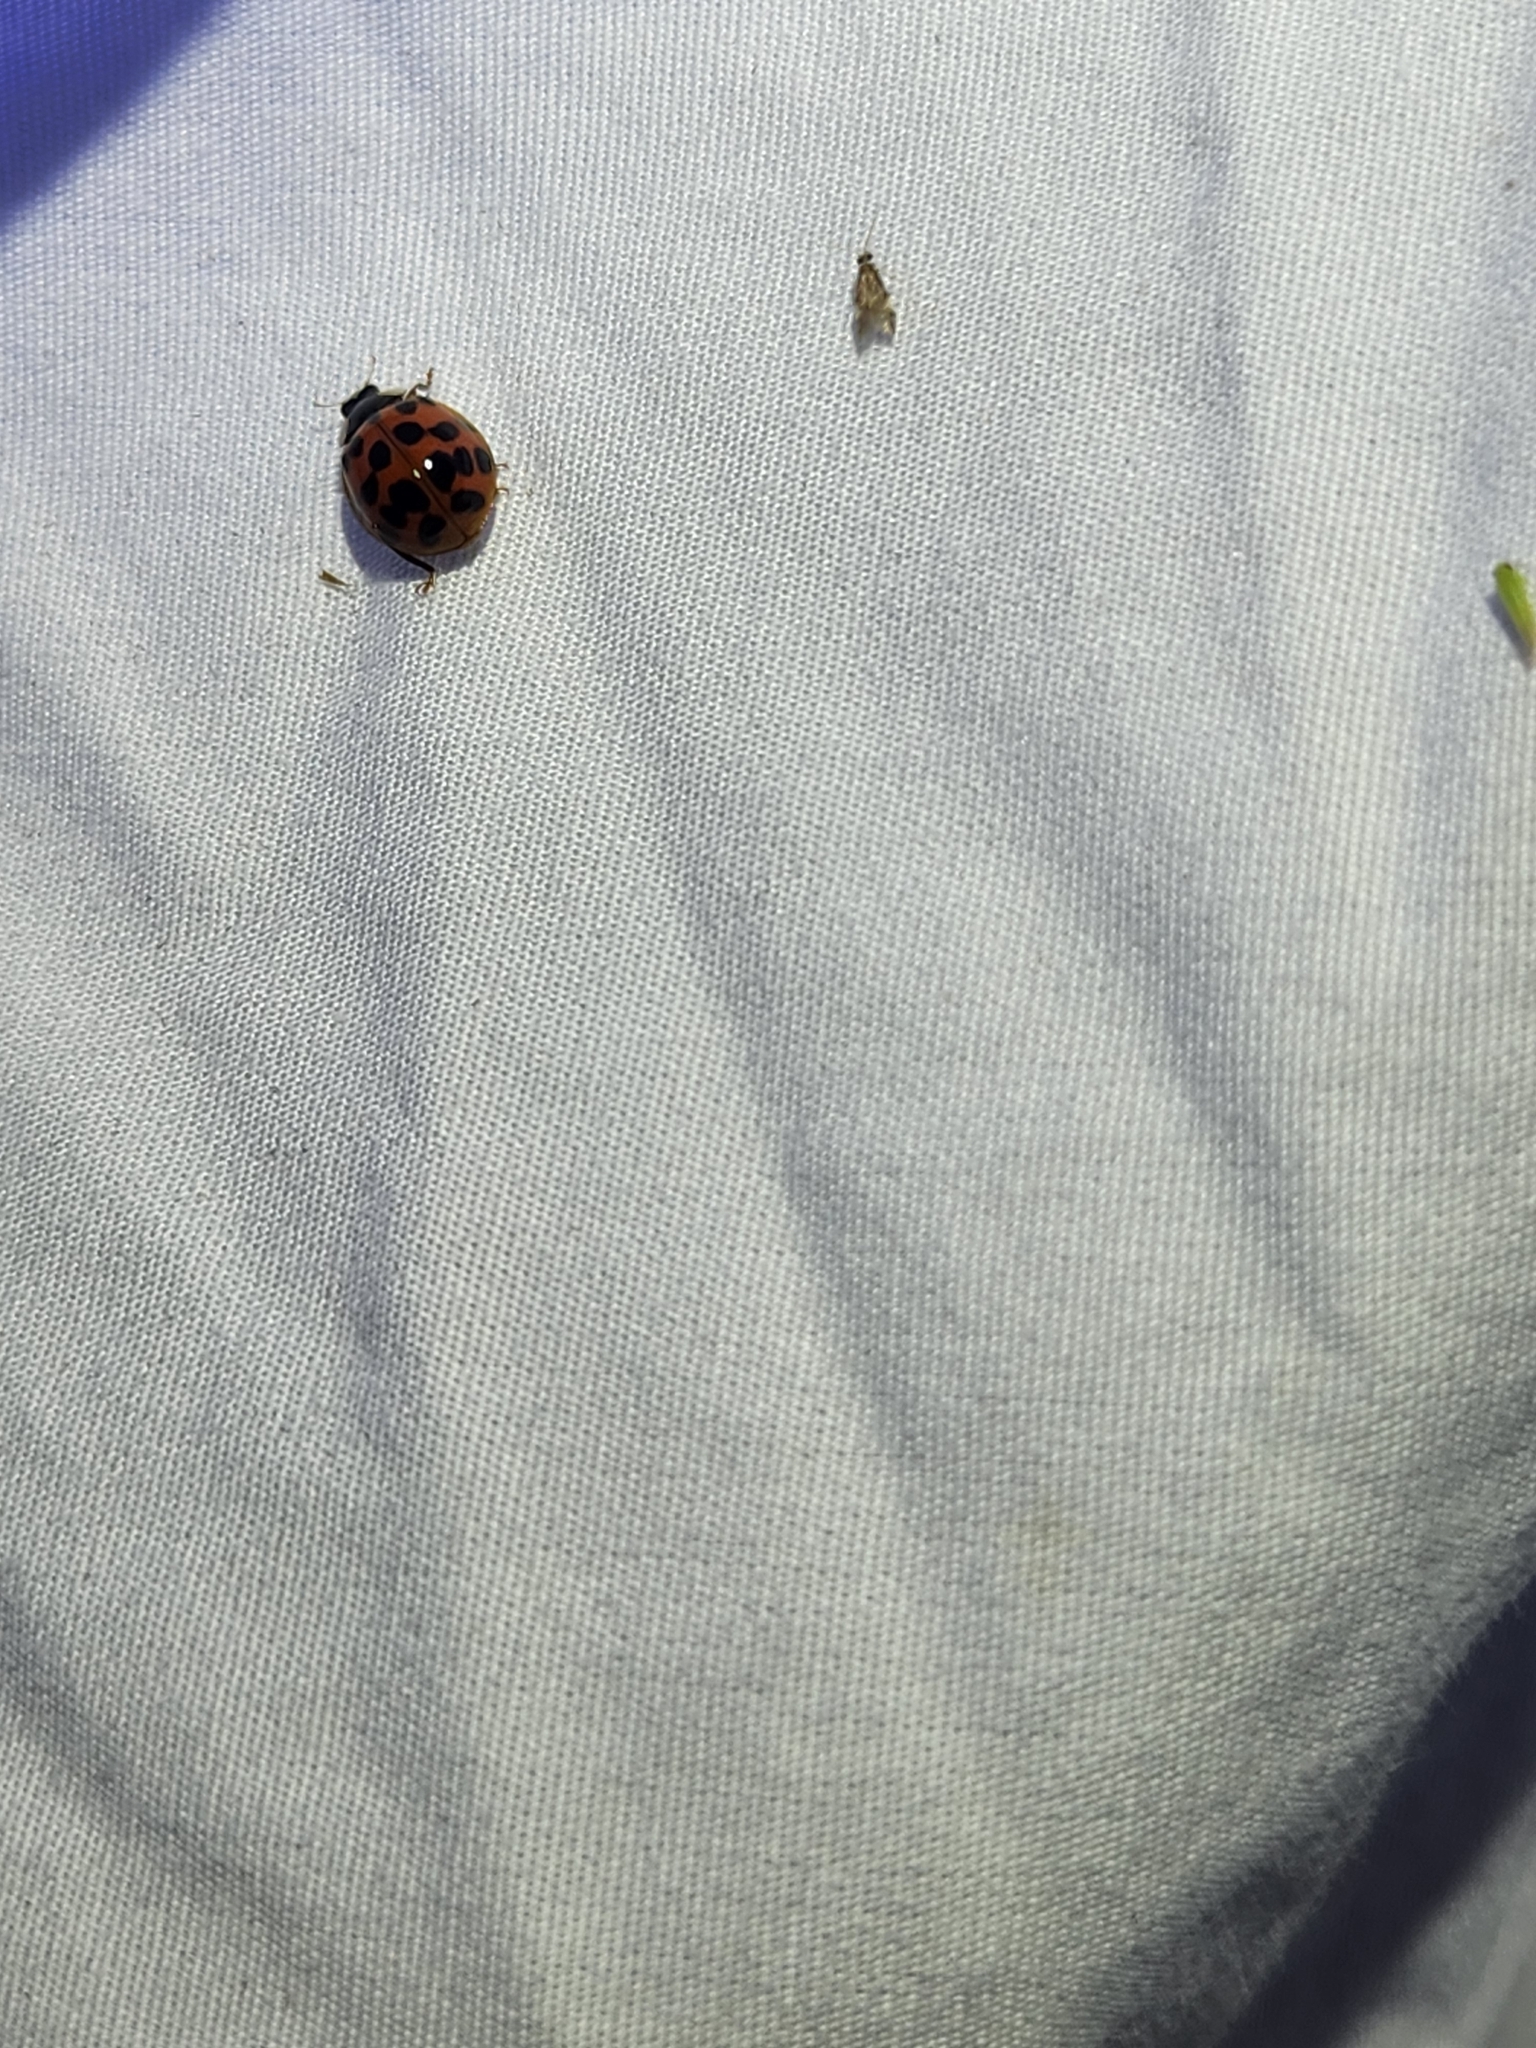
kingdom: Animalia
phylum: Arthropoda
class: Insecta
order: Coleoptera
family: Coccinellidae
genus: Harmonia
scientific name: Harmonia axyridis
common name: Harlequin ladybird
